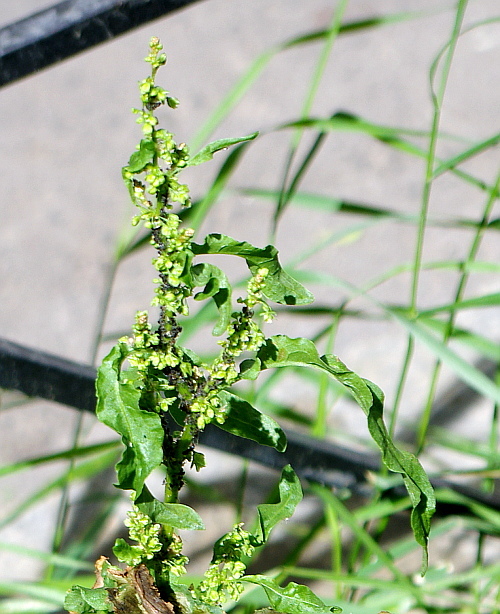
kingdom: Plantae
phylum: Tracheophyta
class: Magnoliopsida
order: Caryophyllales
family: Polygonaceae
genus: Rumex
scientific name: Rumex crispus
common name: Curled dock
